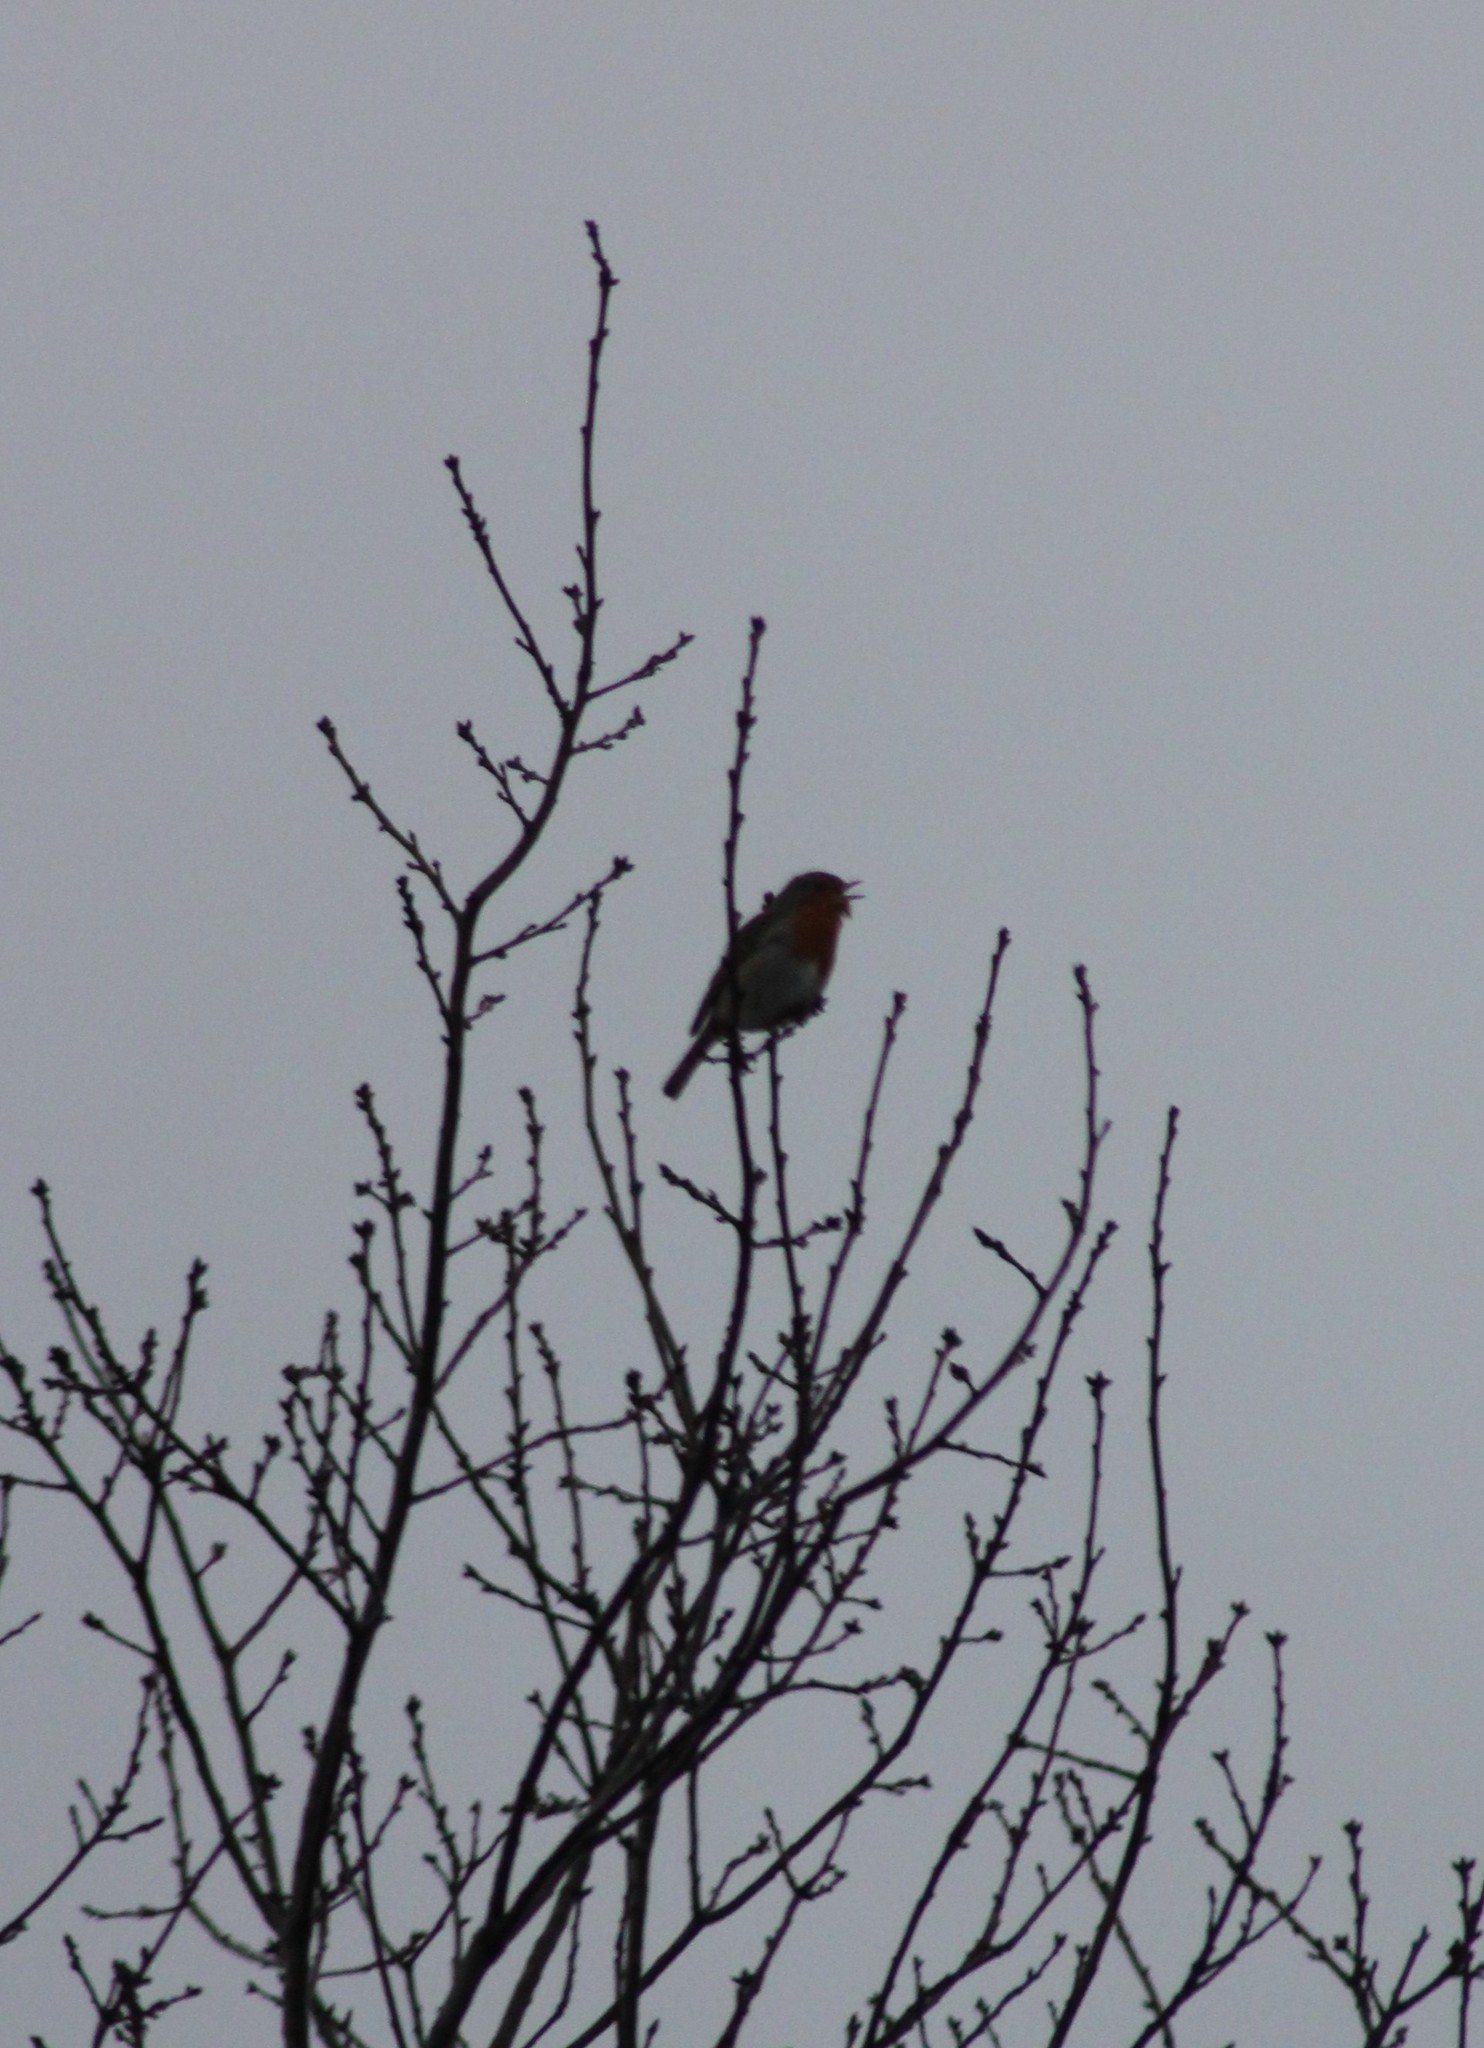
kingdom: Animalia
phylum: Chordata
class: Aves
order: Passeriformes
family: Muscicapidae
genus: Erithacus
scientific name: Erithacus rubecula
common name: European robin
